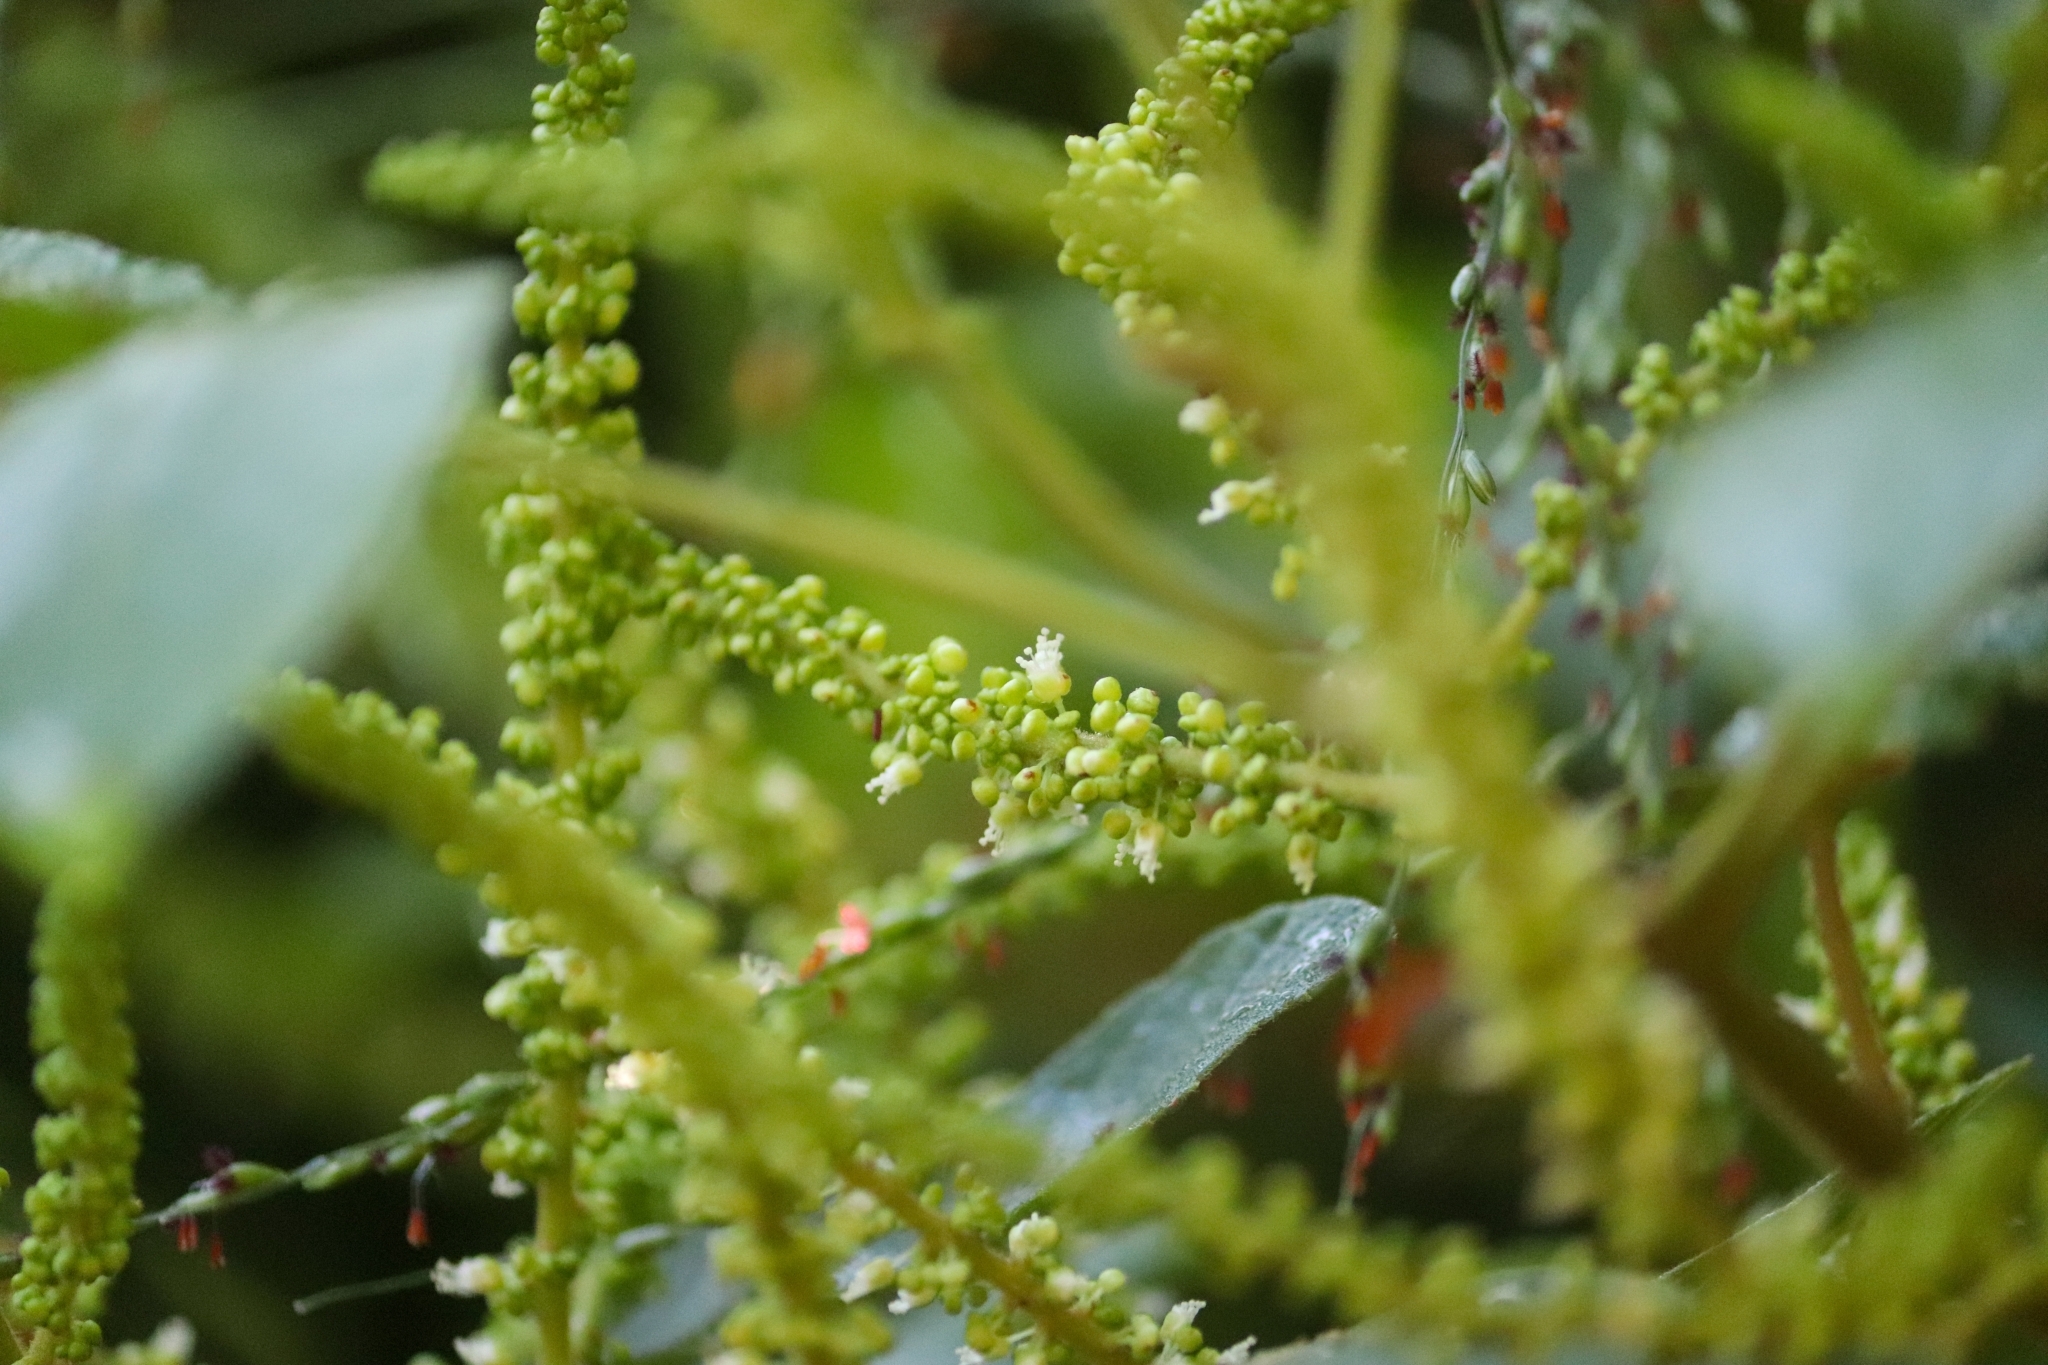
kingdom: Plantae
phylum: Tracheophyta
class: Magnoliopsida
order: Sapindales
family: Sapindaceae
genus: Allophylus
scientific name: Allophylus cobbe
